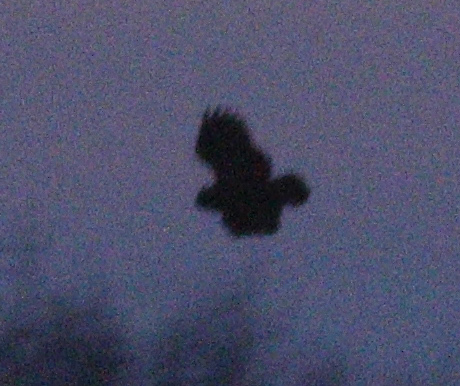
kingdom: Animalia
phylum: Chordata
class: Aves
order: Strigiformes
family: Strigidae
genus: Bubo
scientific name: Bubo bubo
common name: Eurasian eagle-owl
